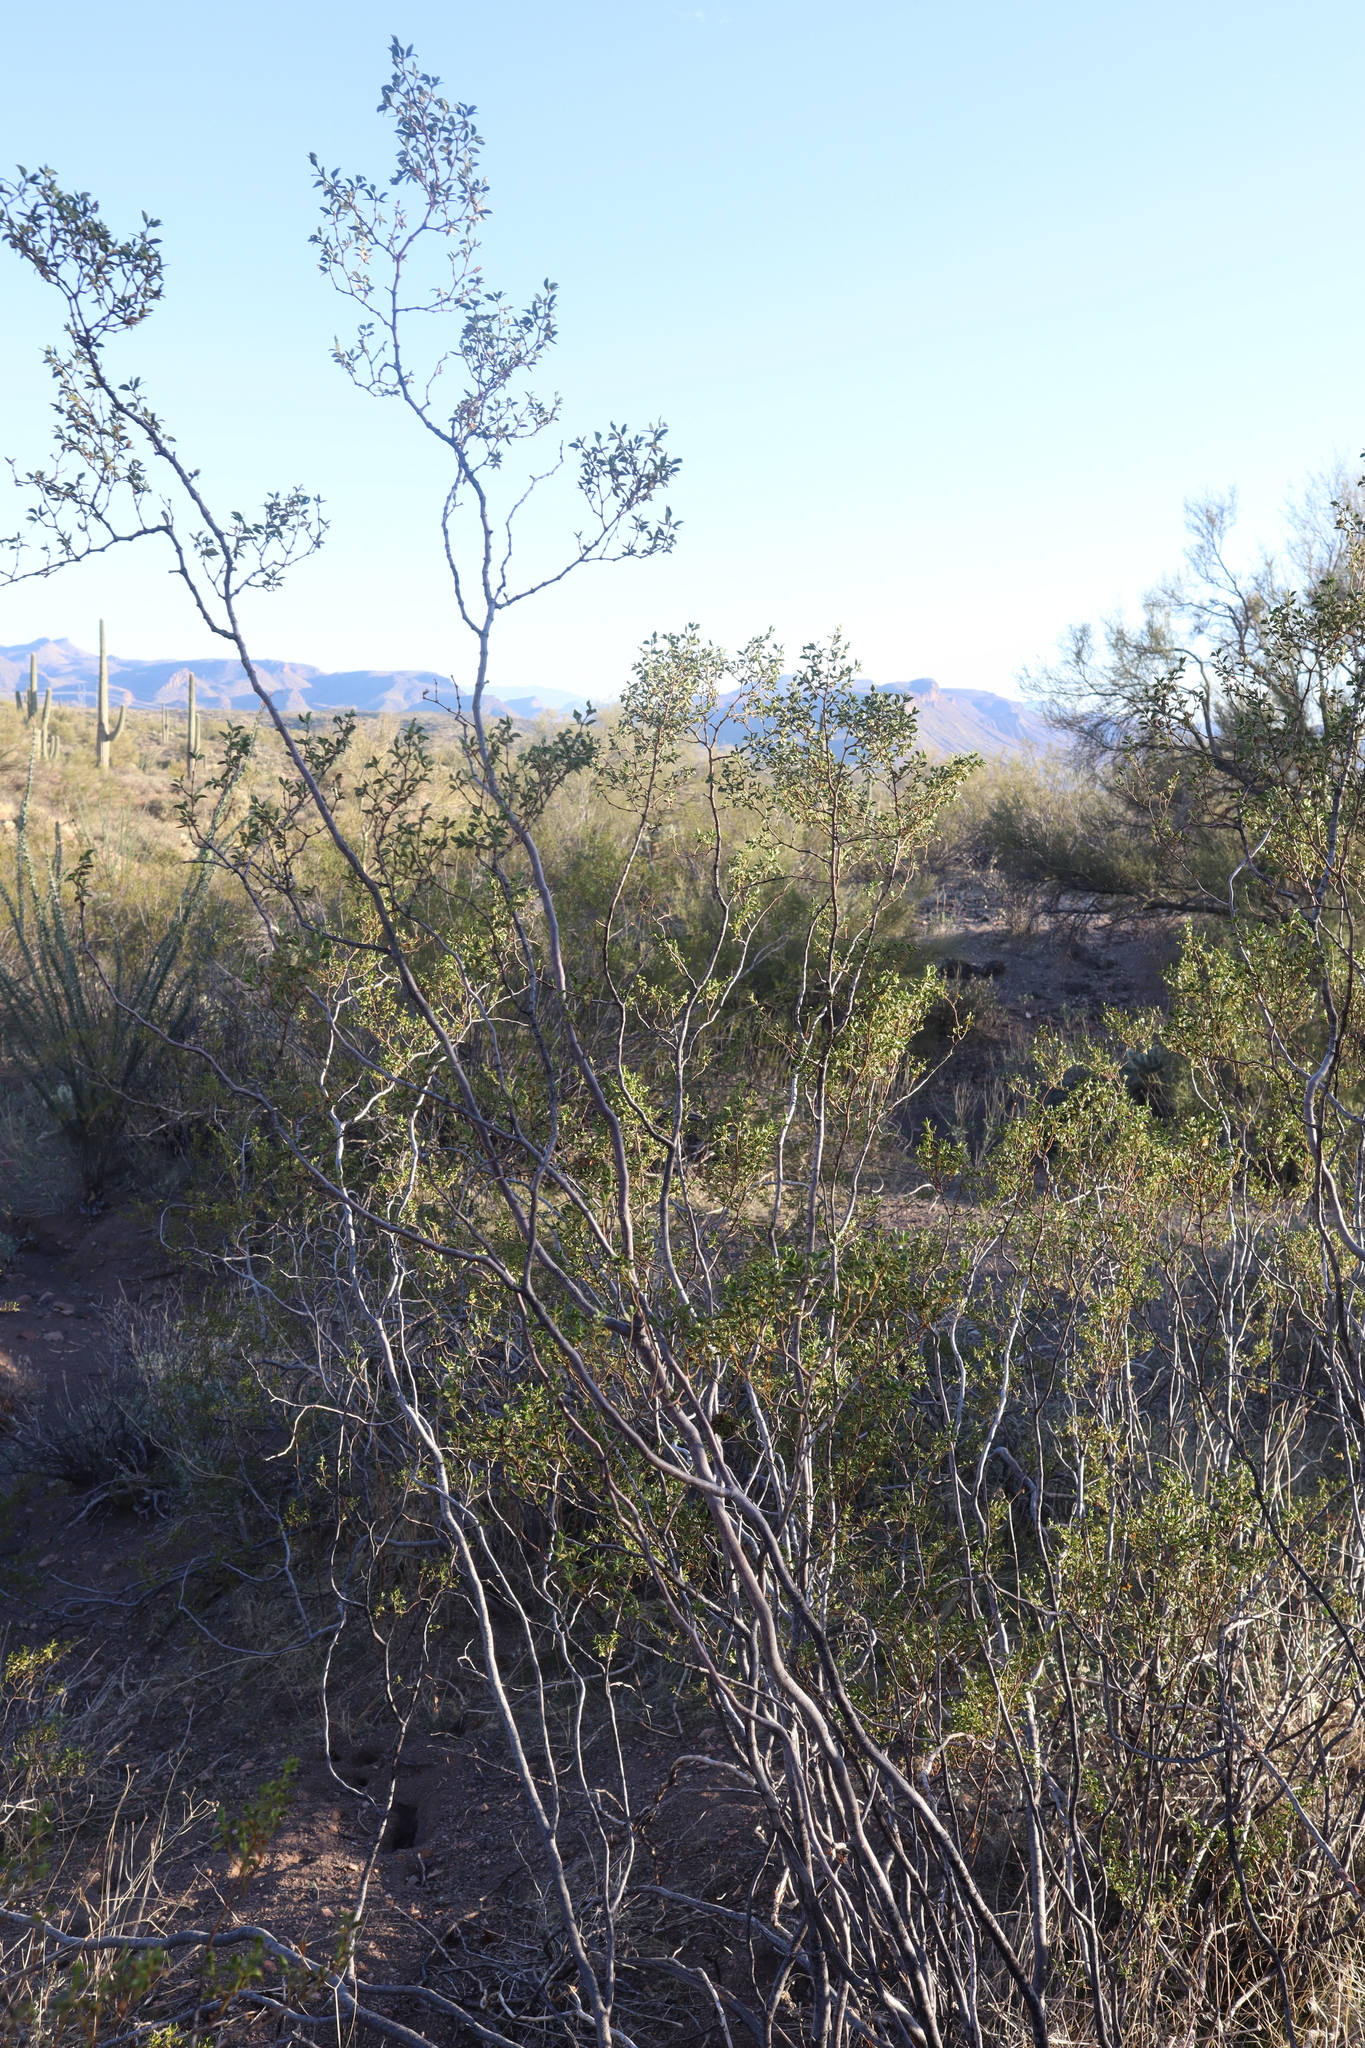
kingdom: Plantae
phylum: Tracheophyta
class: Magnoliopsida
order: Zygophyllales
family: Zygophyllaceae
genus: Larrea
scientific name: Larrea tridentata
